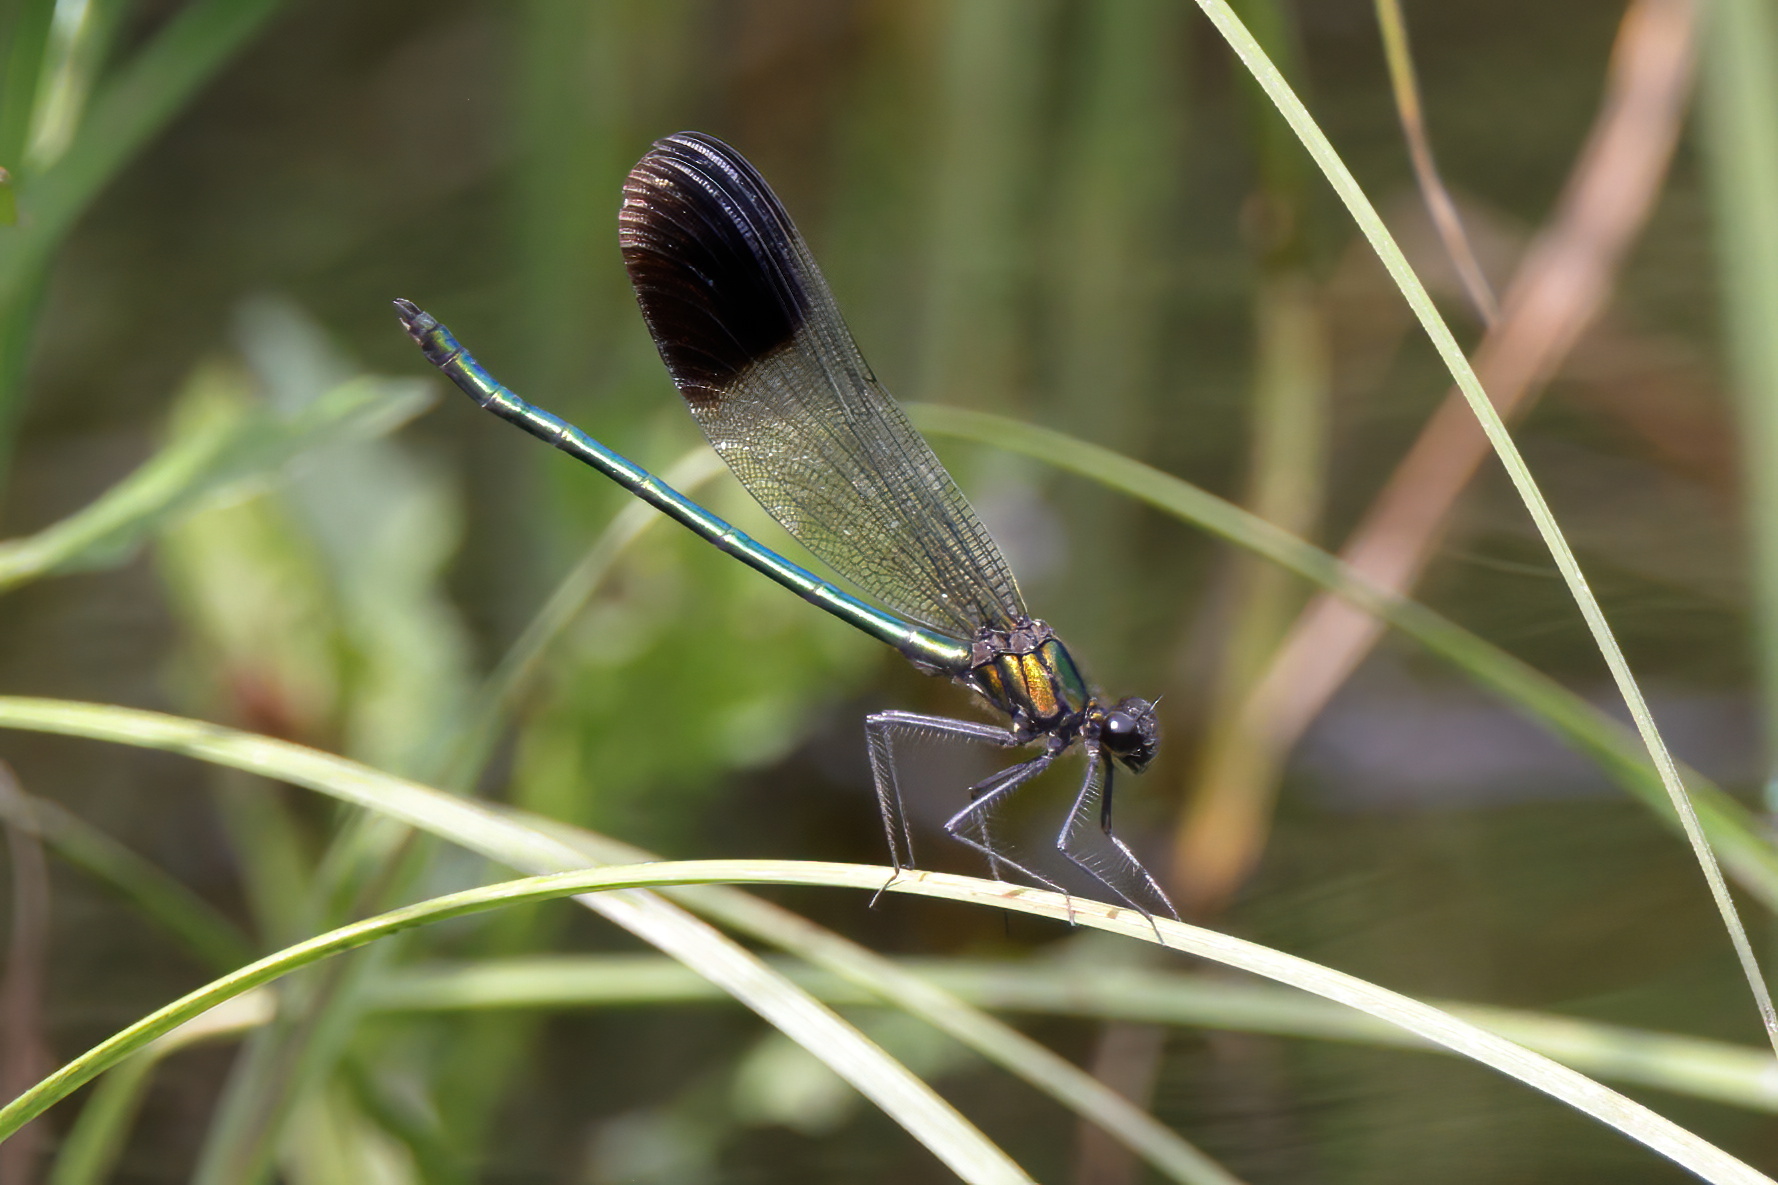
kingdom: Animalia
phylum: Arthropoda
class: Insecta
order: Odonata
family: Calopterygidae
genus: Calopteryx
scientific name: Calopteryx aequabilis
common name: River jewelwing
